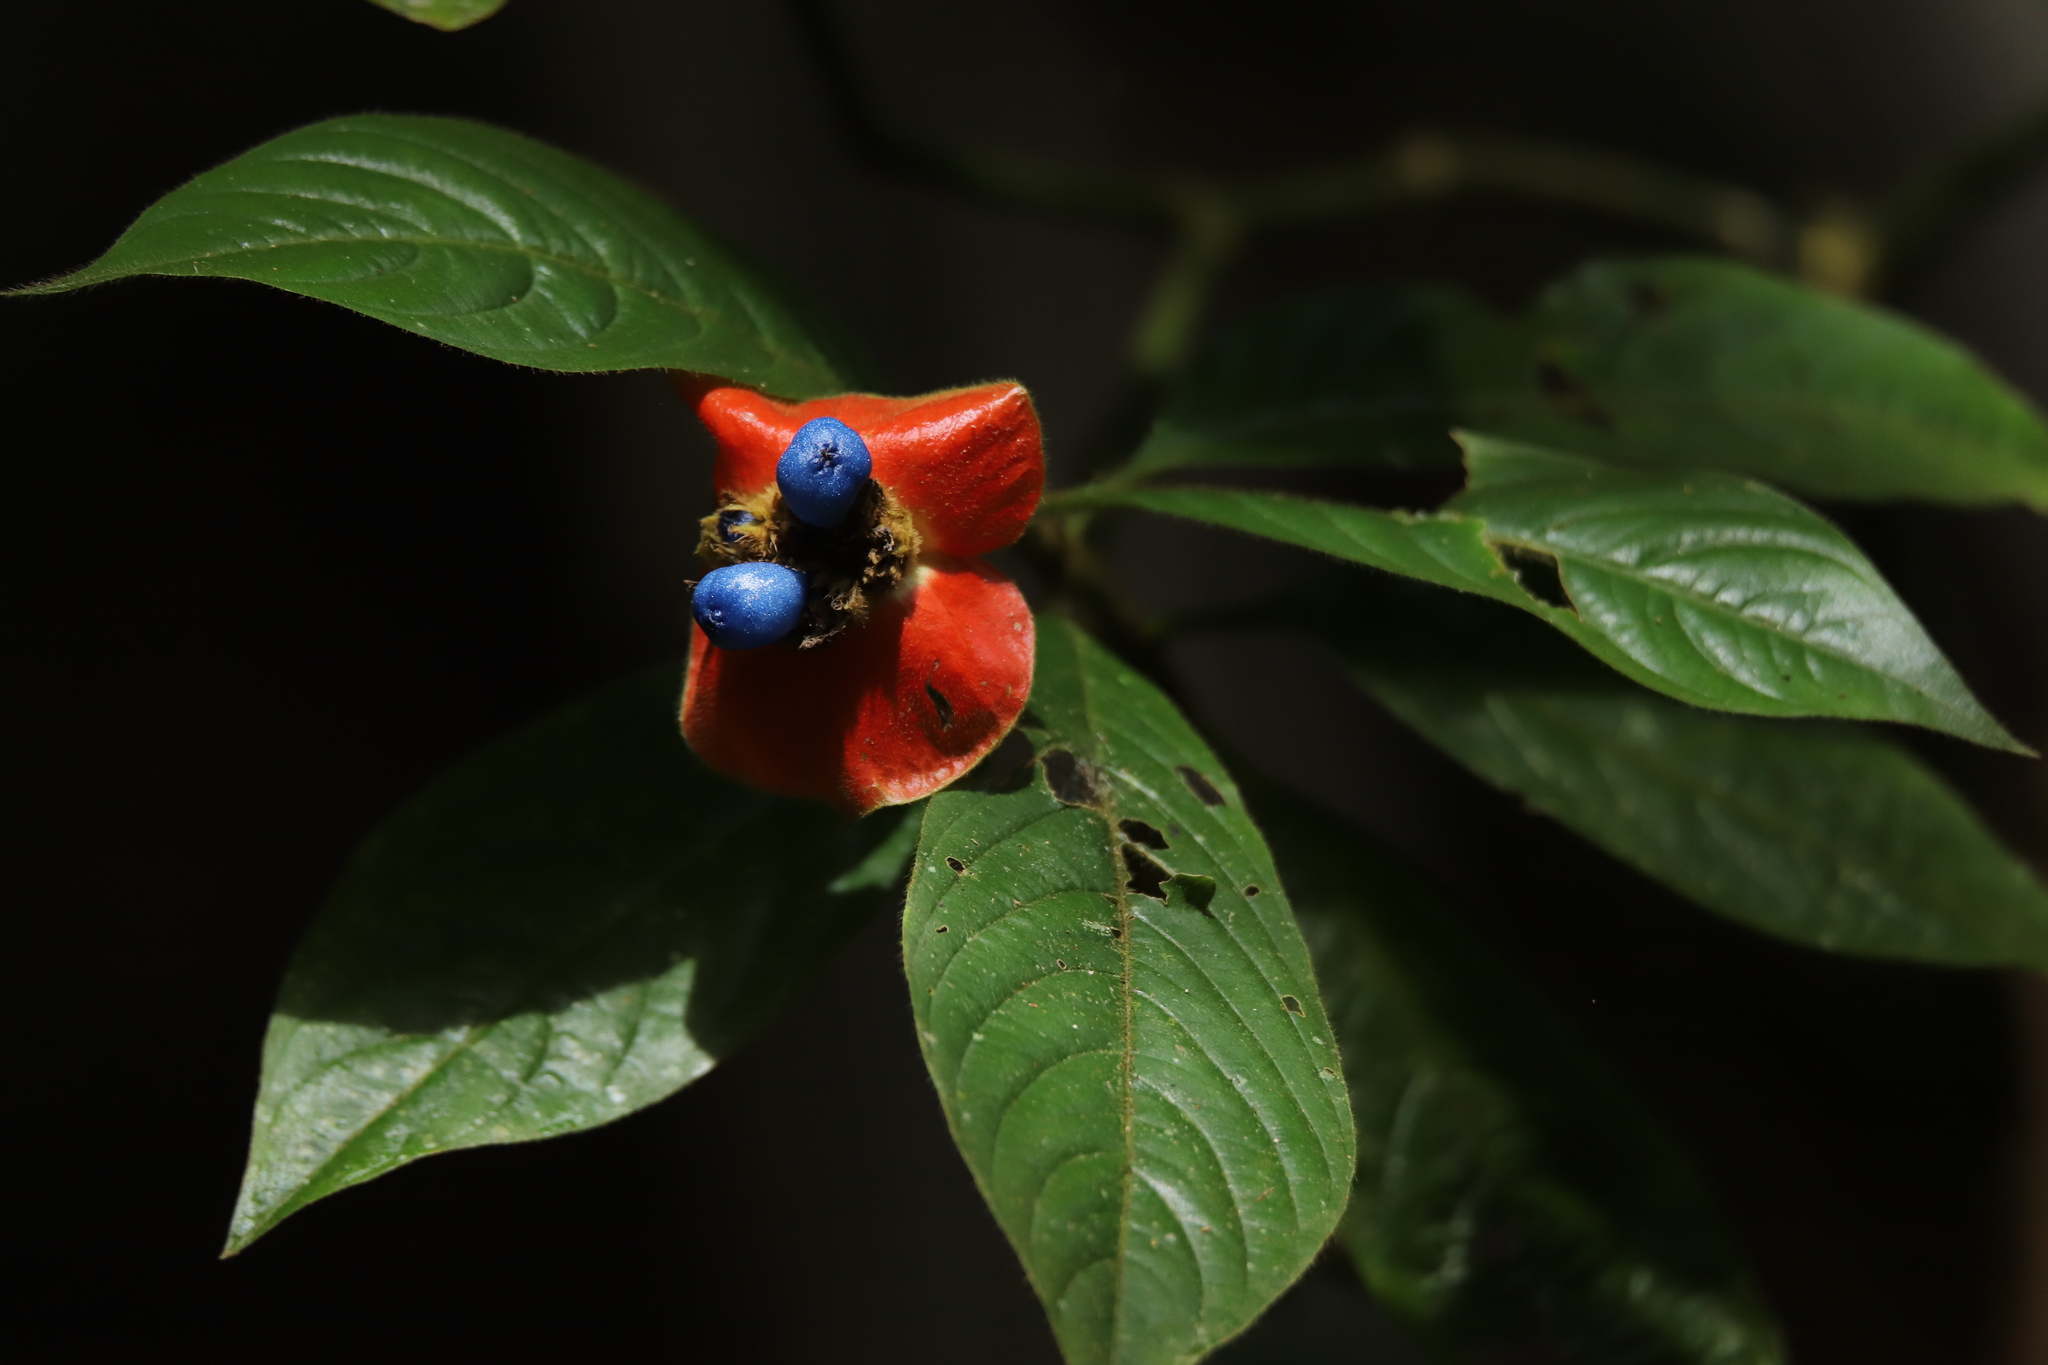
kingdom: Plantae
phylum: Tracheophyta
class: Magnoliopsida
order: Gentianales
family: Rubiaceae
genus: Palicourea
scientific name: Palicourea tomentosa
